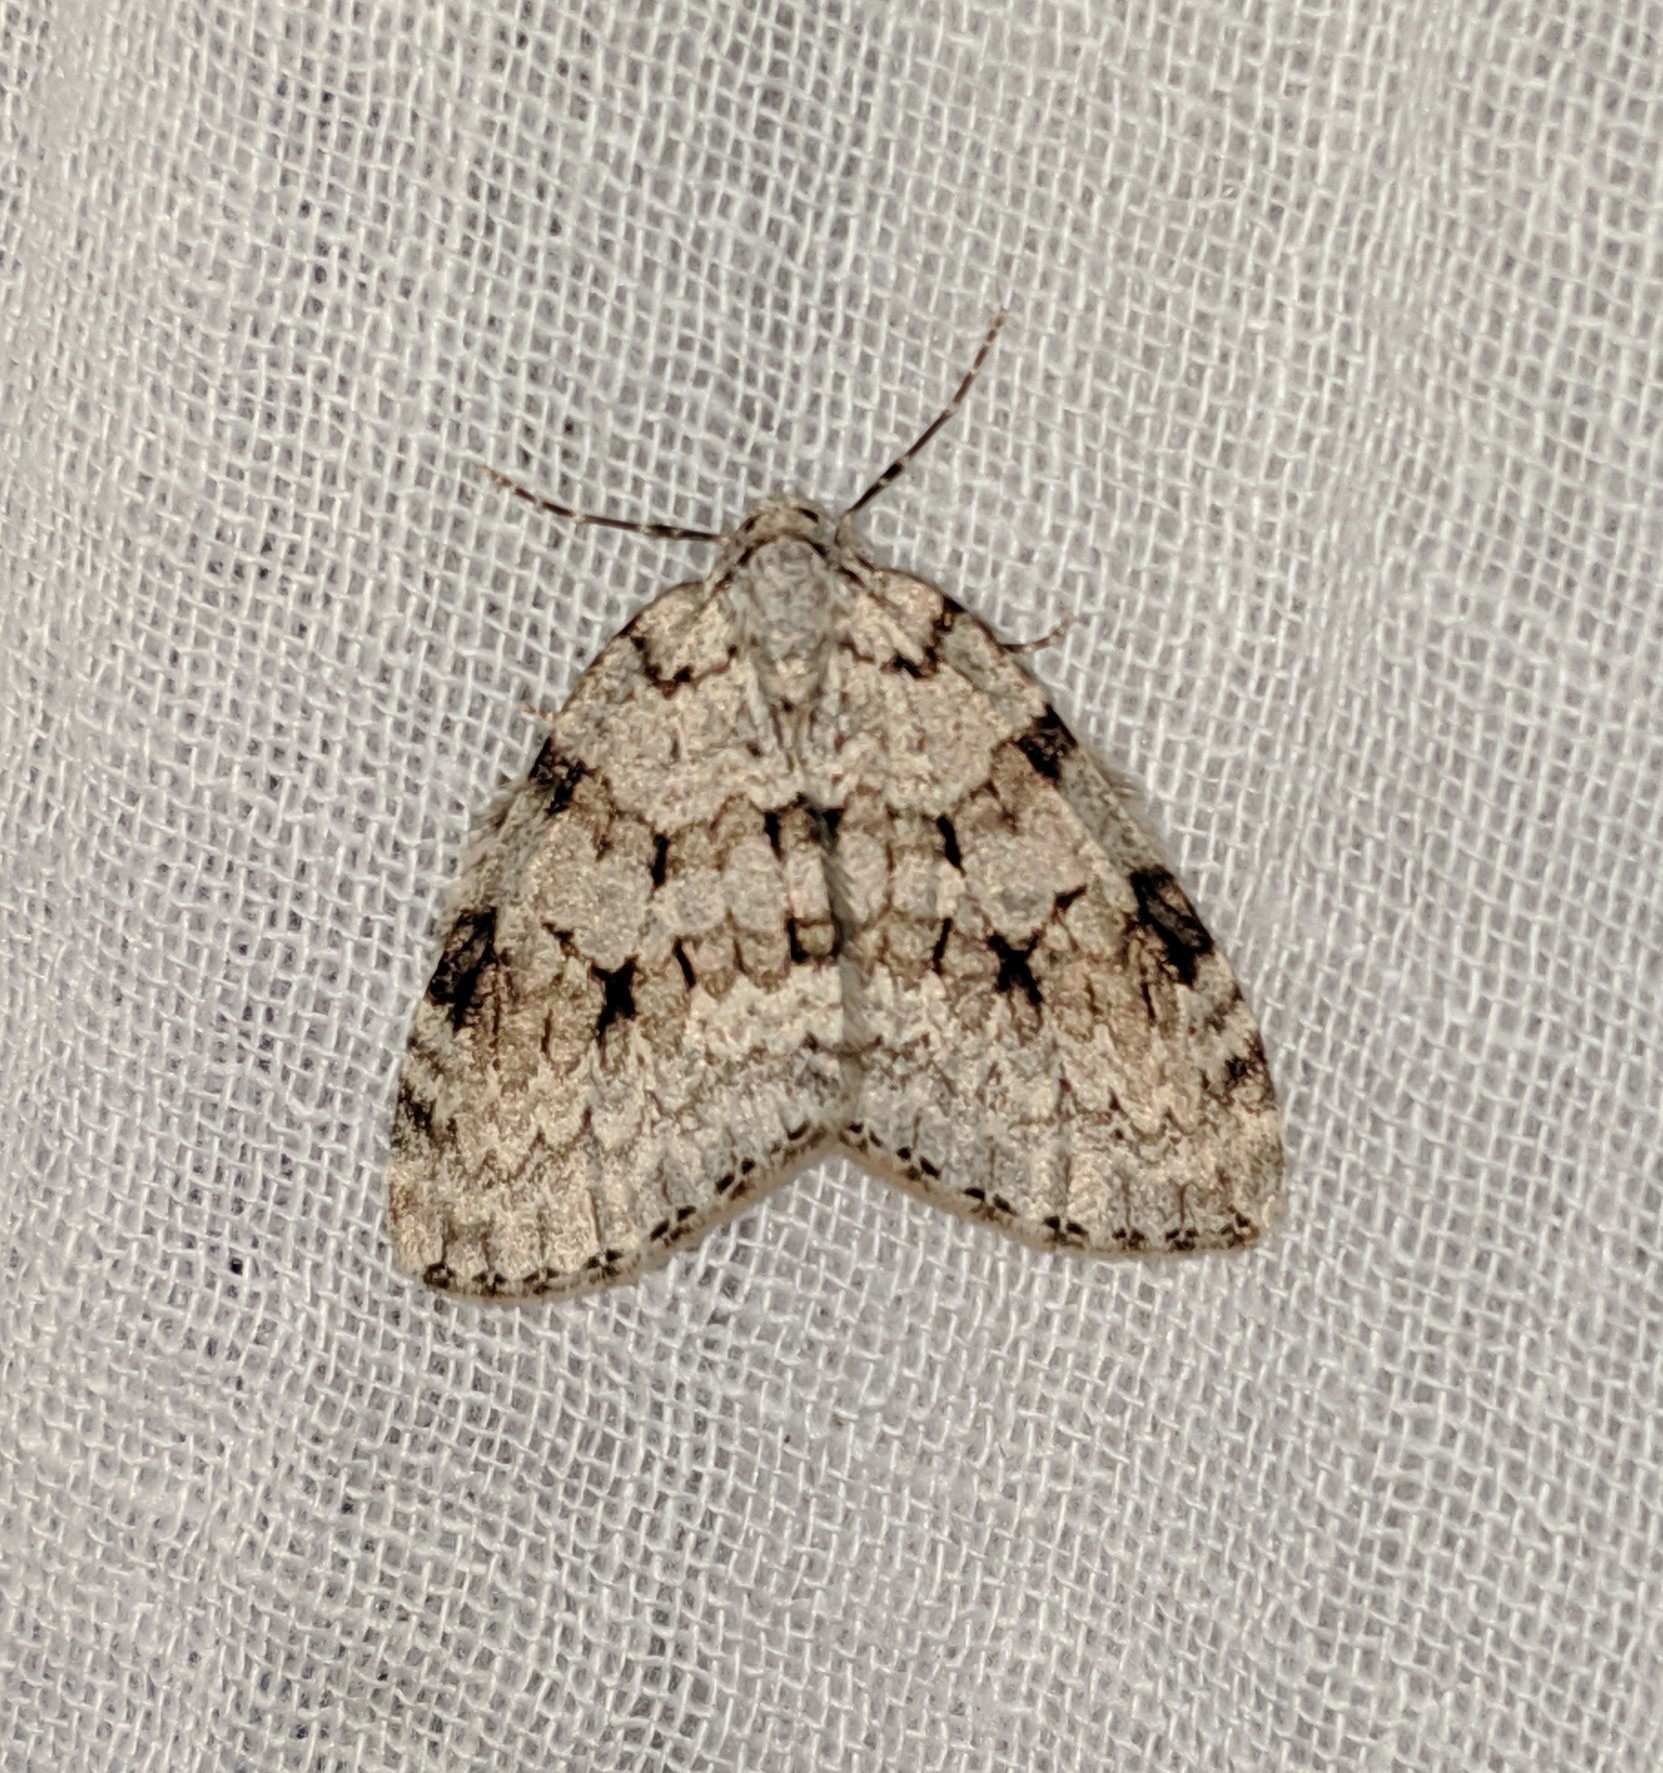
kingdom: Animalia
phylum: Arthropoda
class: Insecta
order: Lepidoptera
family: Geometridae
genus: Epirrita
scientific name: Epirrita autumnata
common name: Autumnal moth
